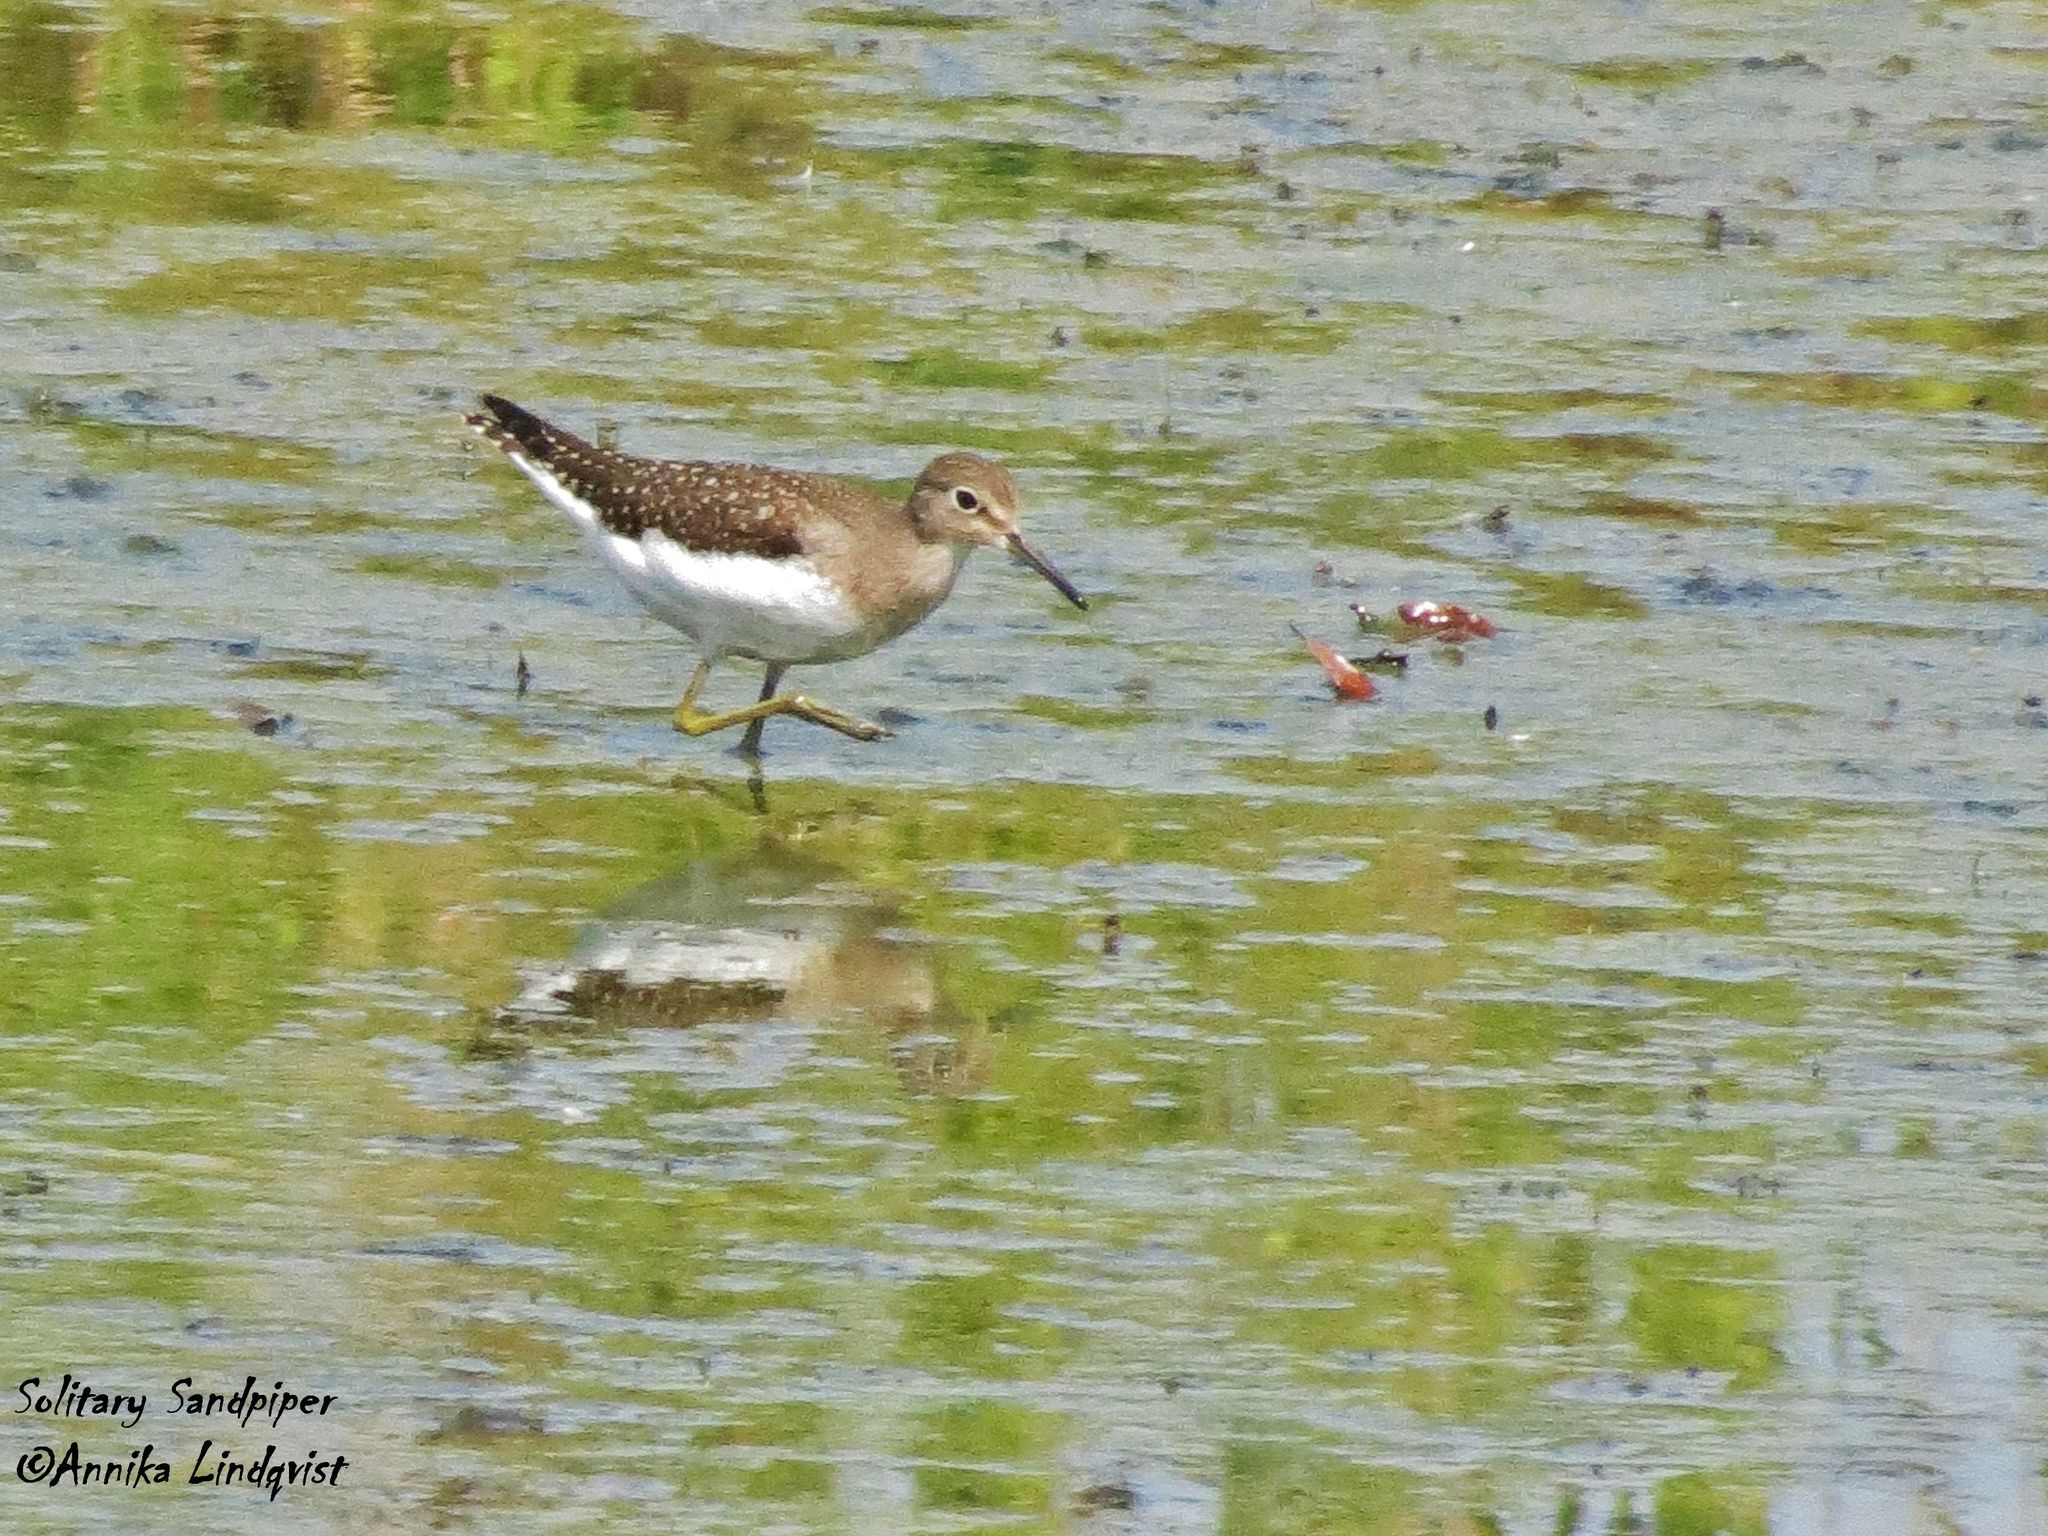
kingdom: Animalia
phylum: Chordata
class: Aves
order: Charadriiformes
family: Scolopacidae
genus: Tringa
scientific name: Tringa solitaria
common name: Solitary sandpiper
